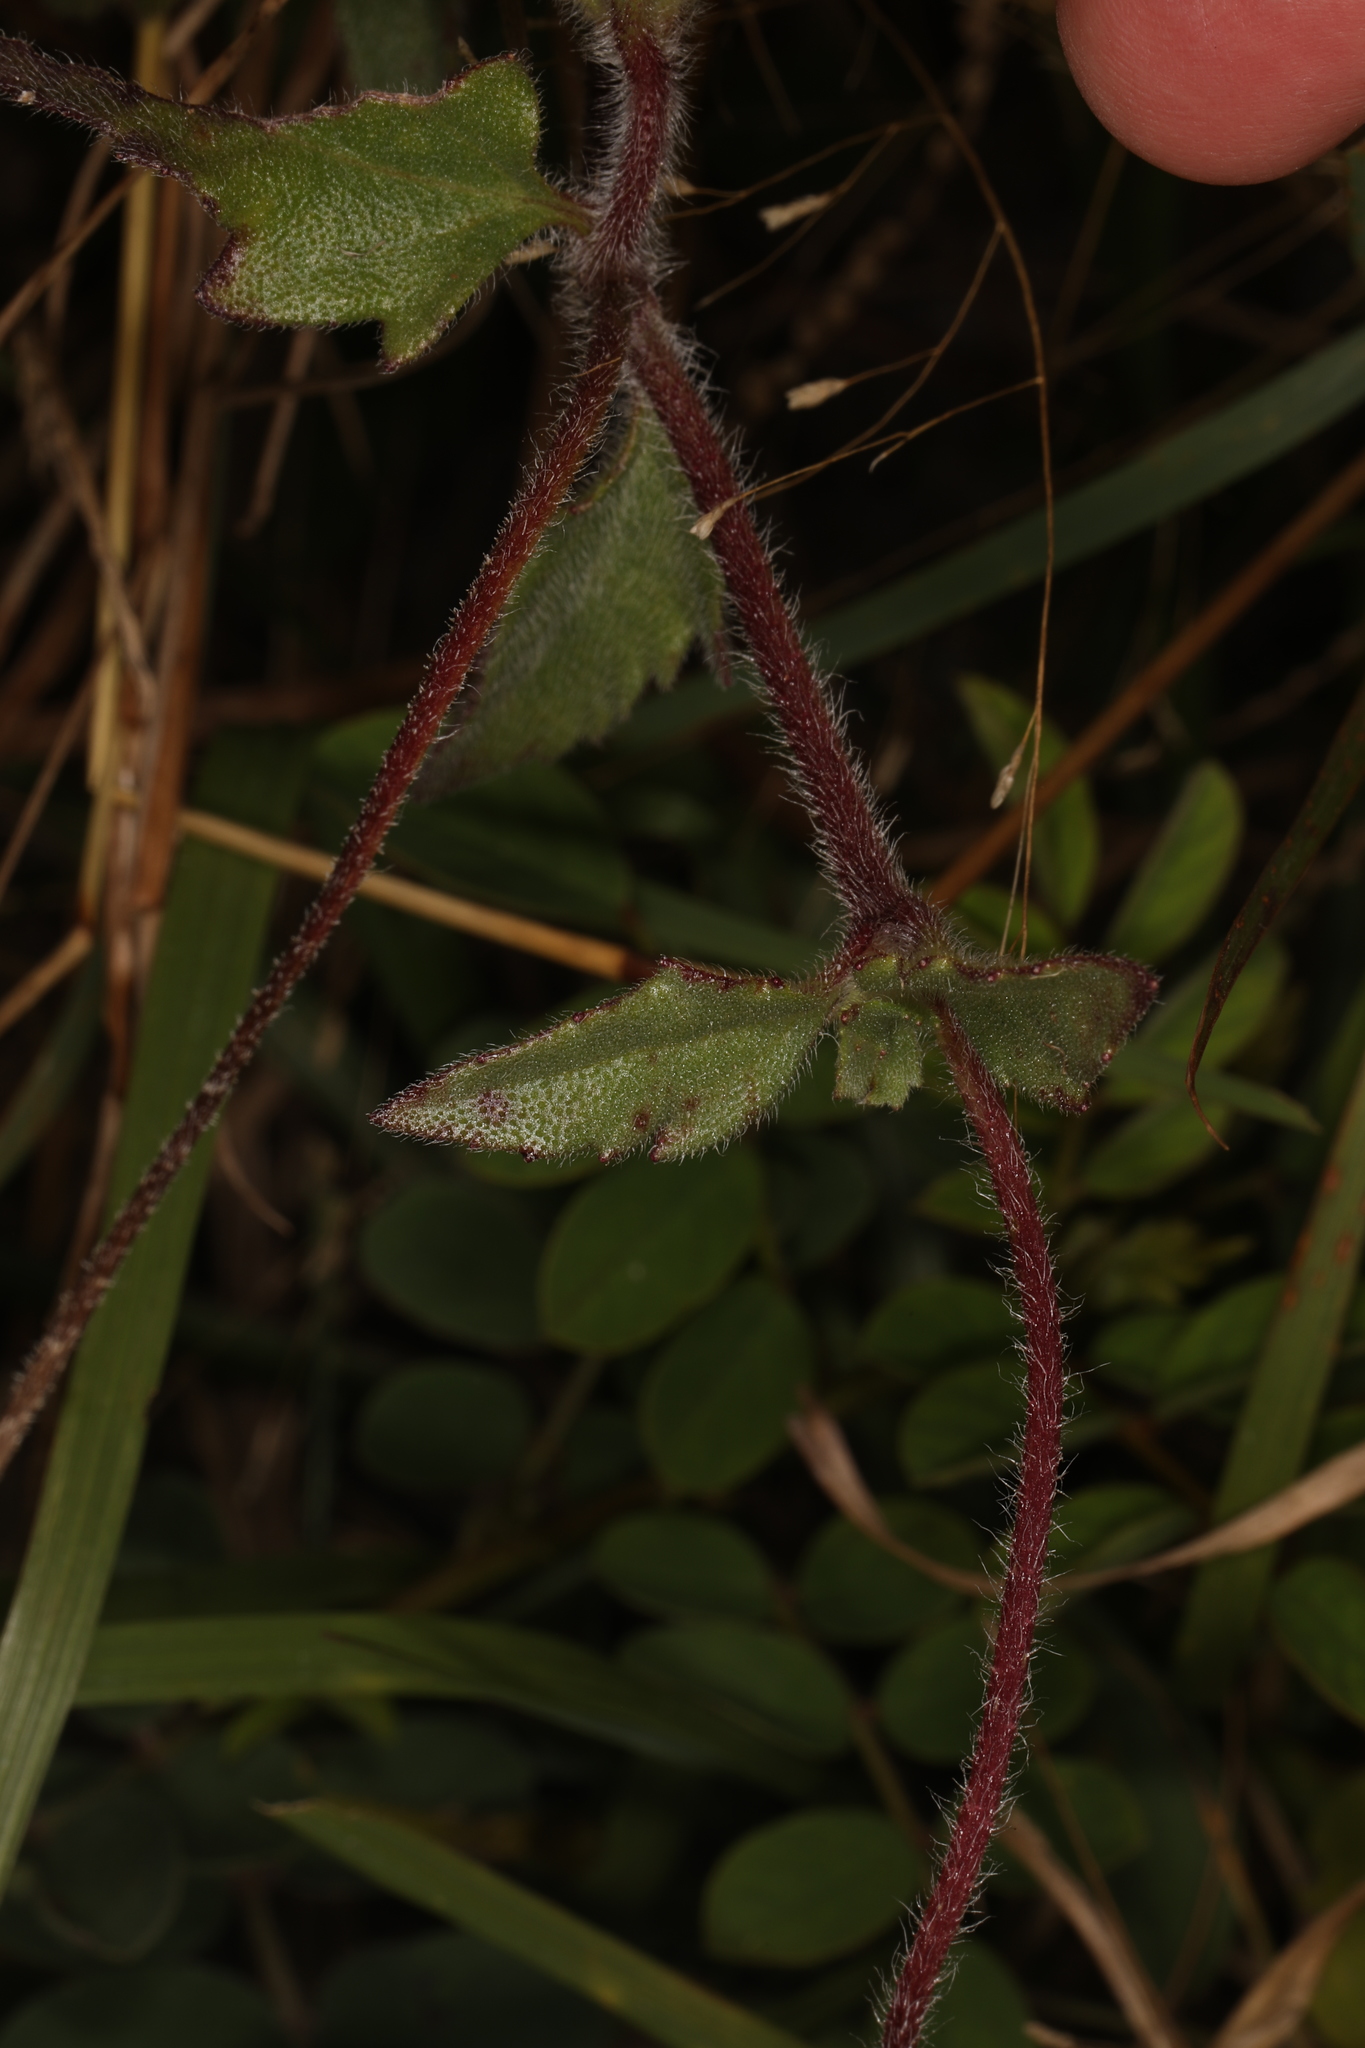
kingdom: Plantae
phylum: Tracheophyta
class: Magnoliopsida
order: Asterales
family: Asteraceae
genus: Tridax
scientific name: Tridax procumbens
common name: Coatbuttons
